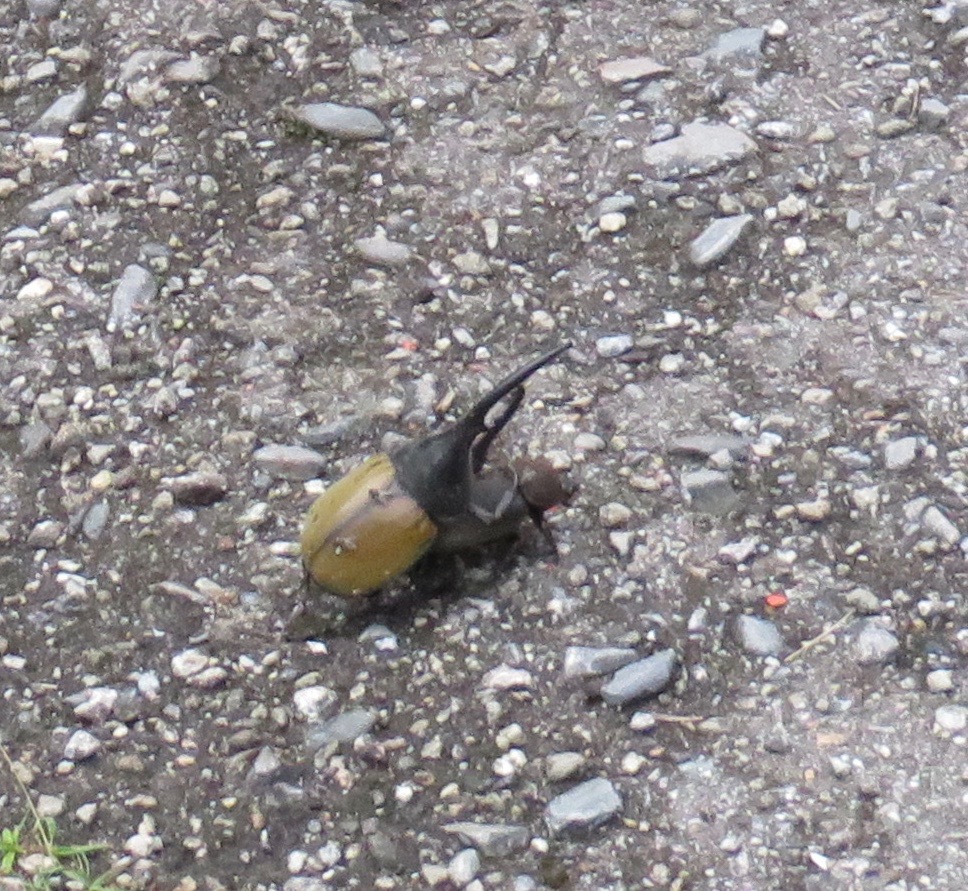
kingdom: Animalia
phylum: Arthropoda
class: Insecta
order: Coleoptera
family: Scarabaeidae
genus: Dynastes
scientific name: Dynastes
